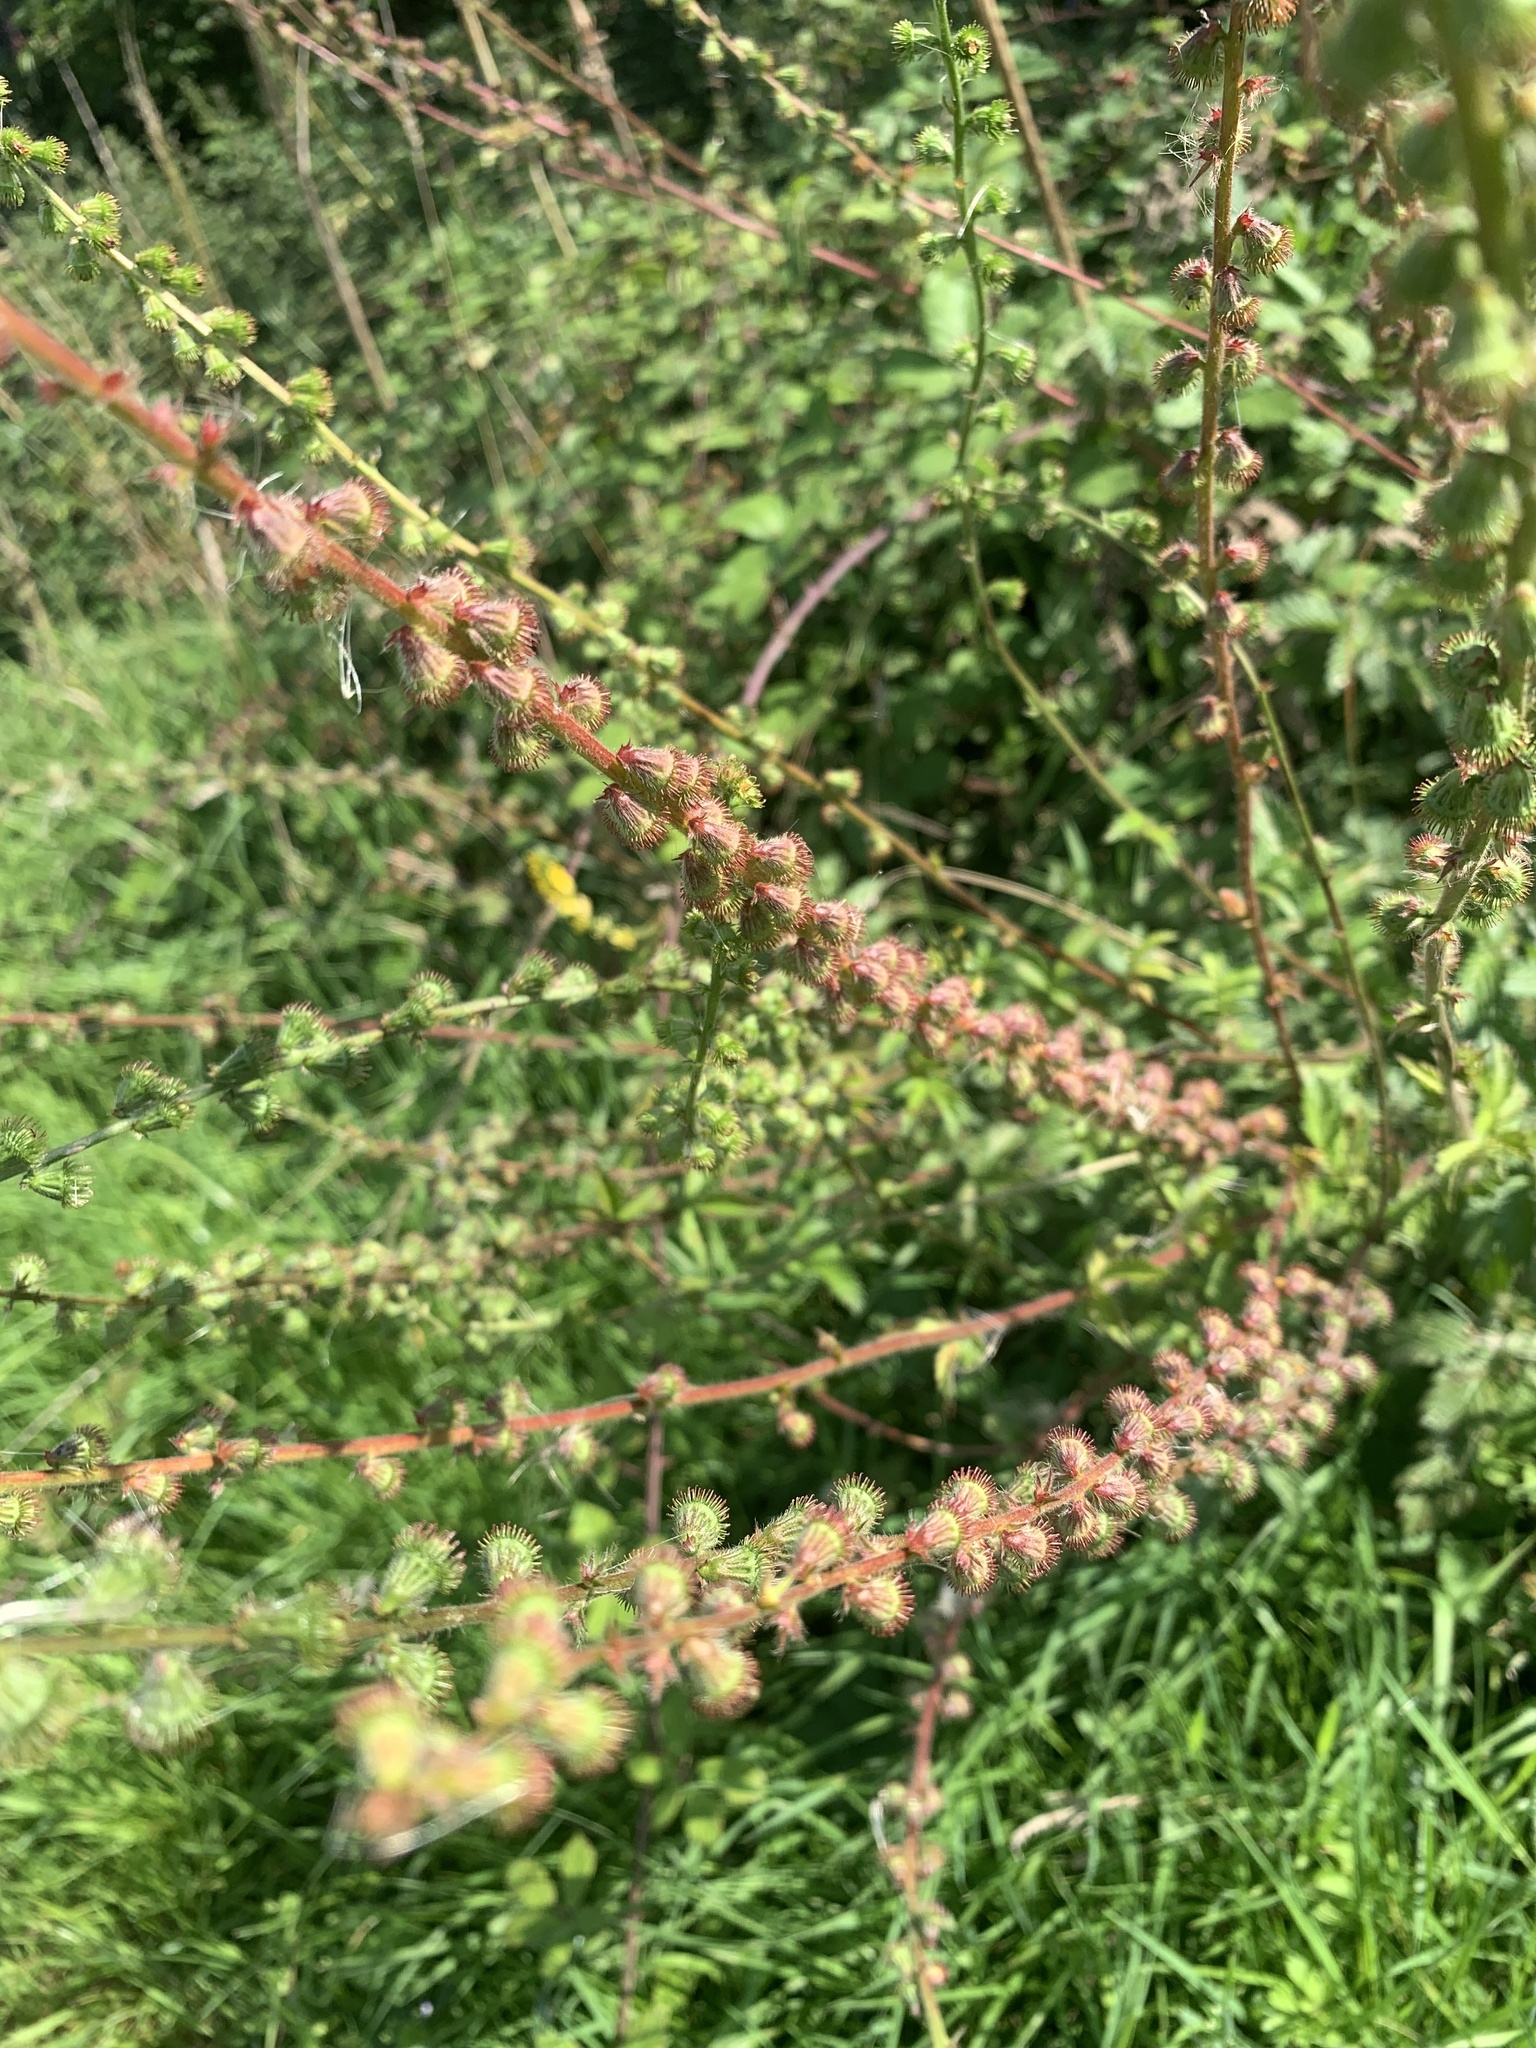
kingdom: Plantae
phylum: Tracheophyta
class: Magnoliopsida
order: Rosales
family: Rosaceae
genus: Agrimonia
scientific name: Agrimonia eupatoria
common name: Agrimony
